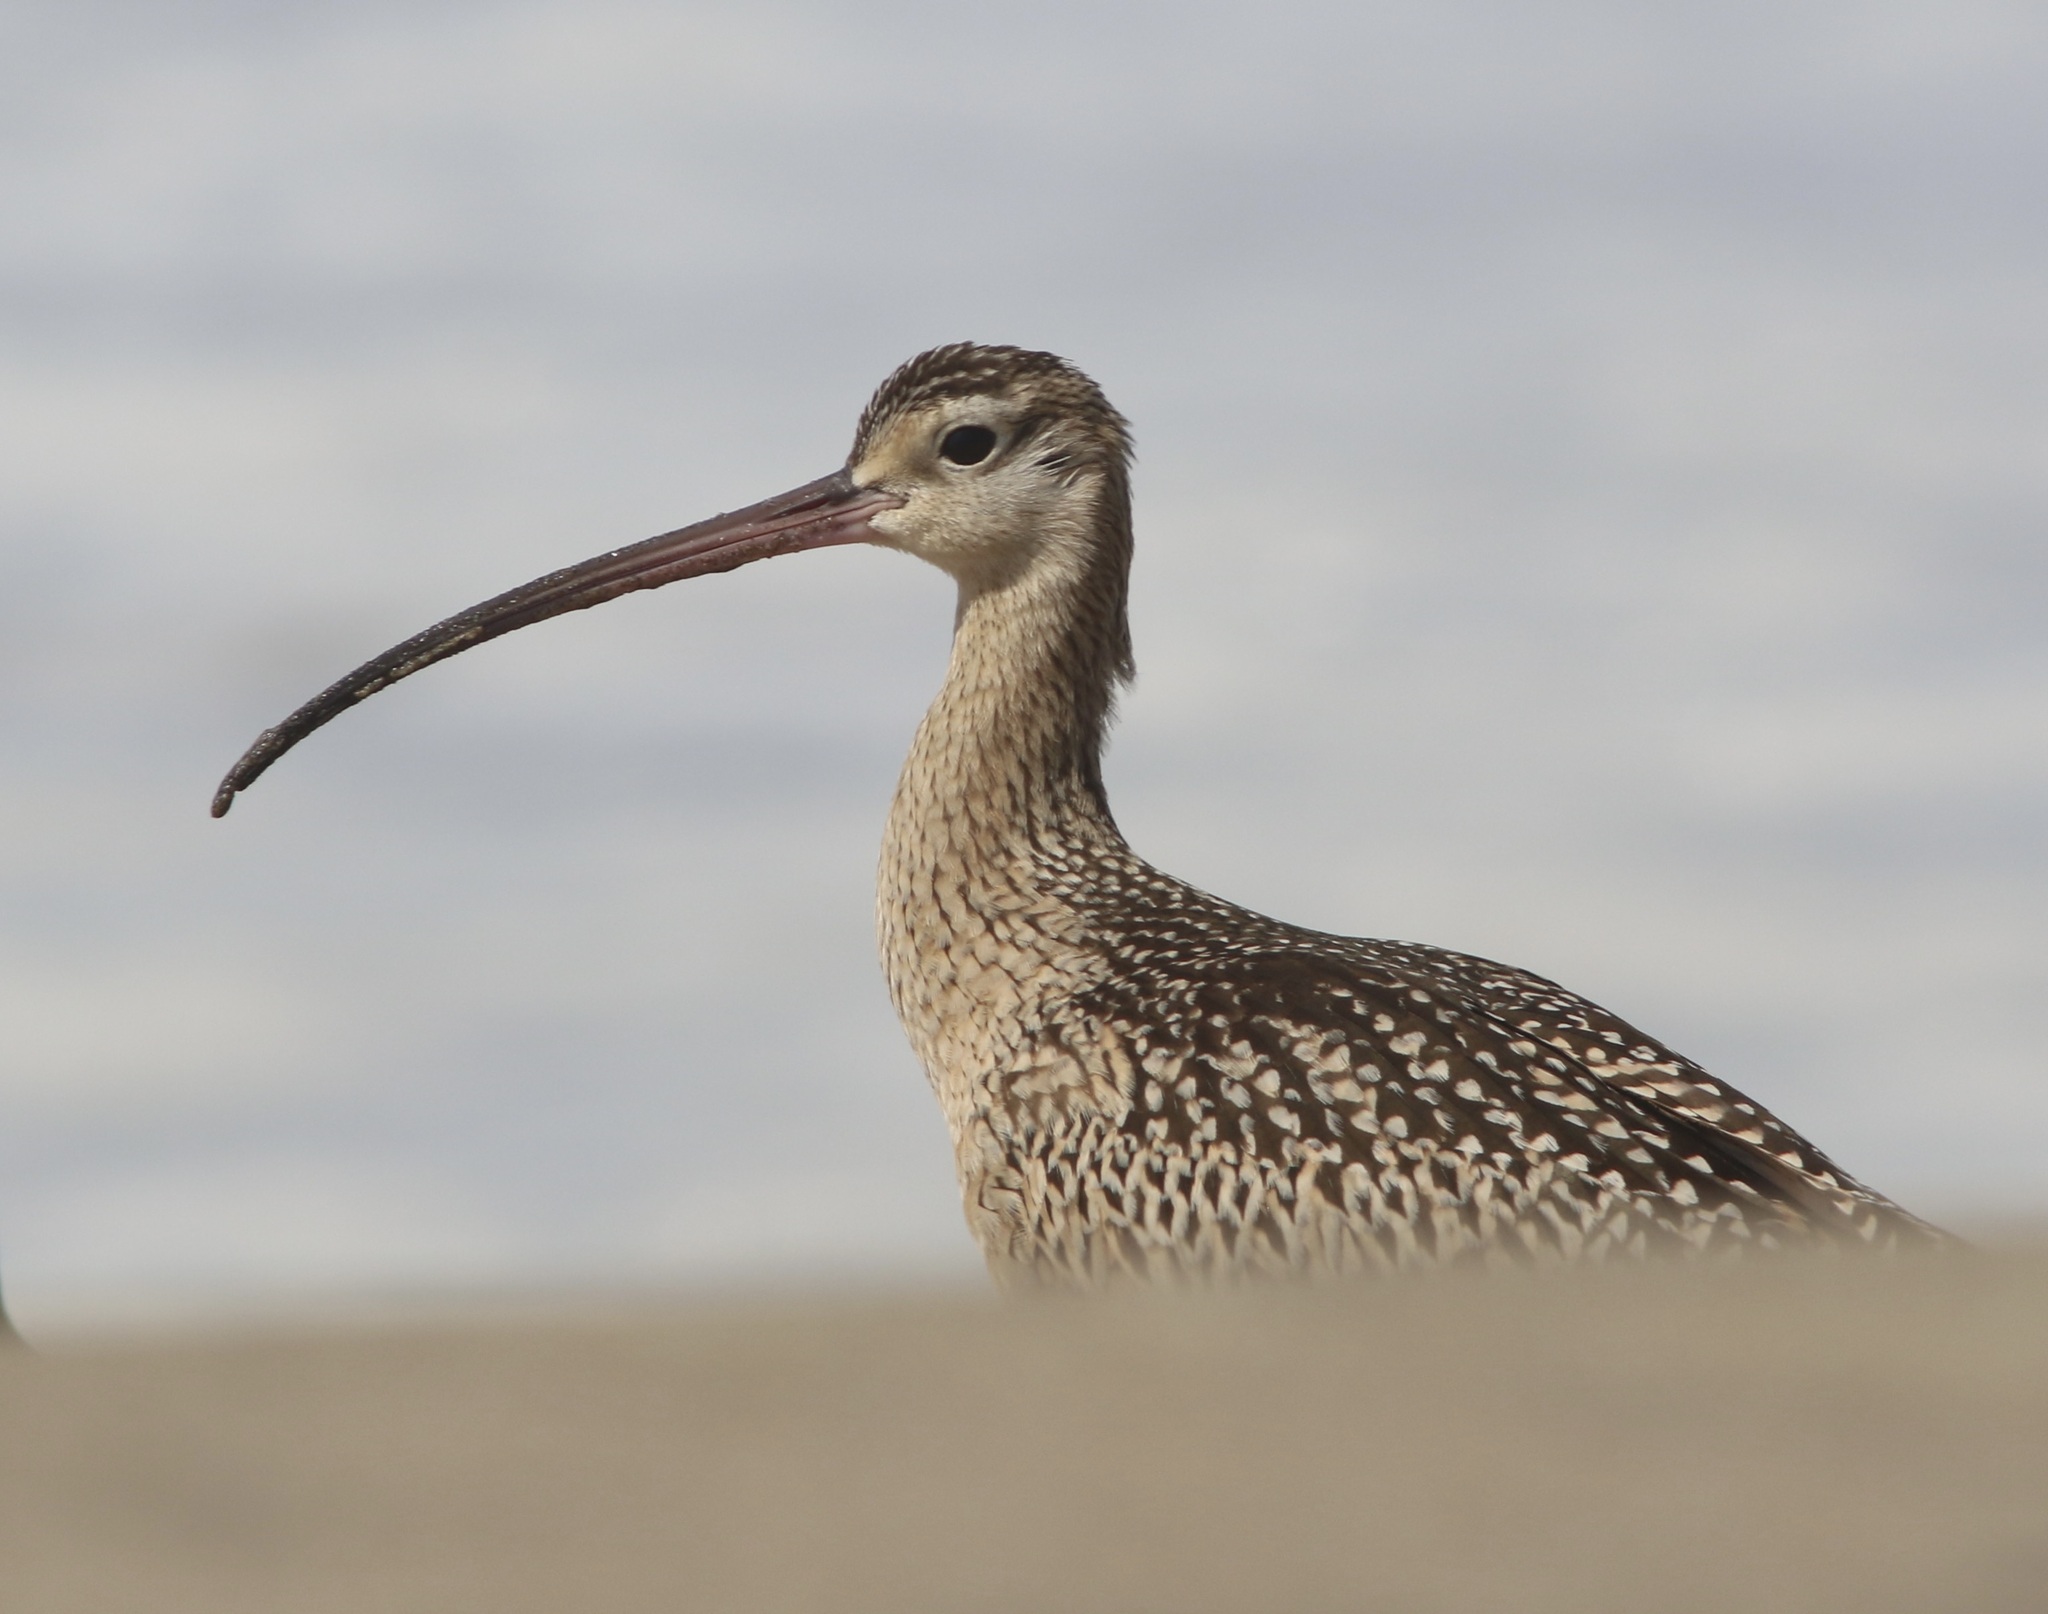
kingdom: Animalia
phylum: Chordata
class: Aves
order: Charadriiformes
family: Scolopacidae
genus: Numenius
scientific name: Numenius americanus
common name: Long-billed curlew
